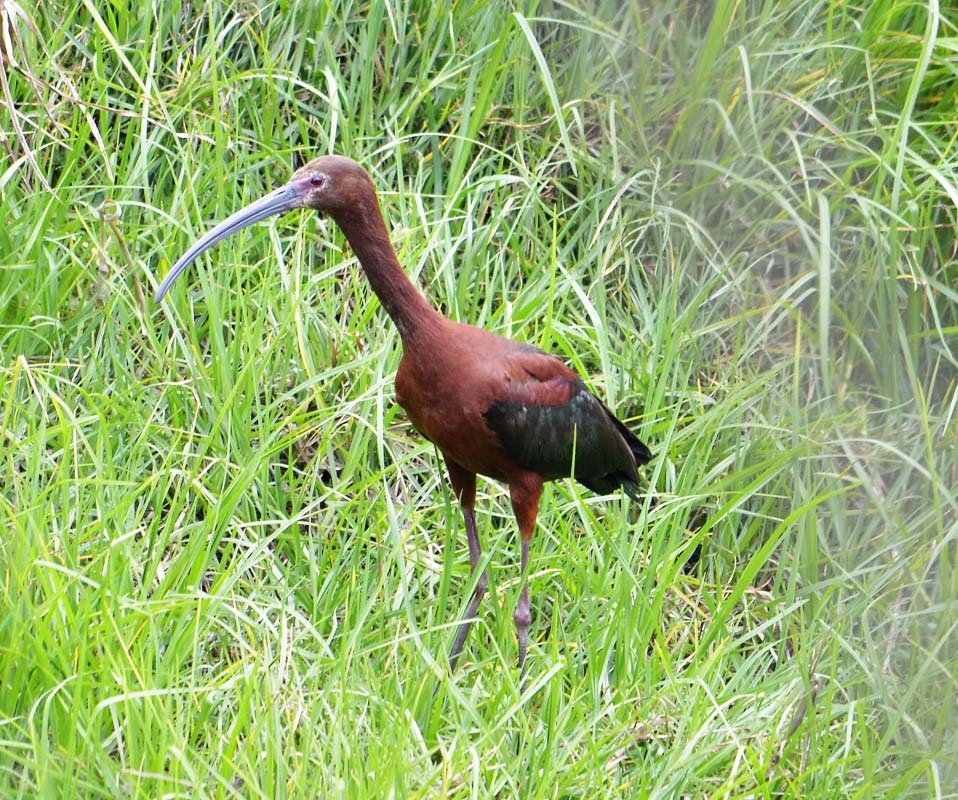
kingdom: Animalia
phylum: Chordata
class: Aves
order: Pelecaniformes
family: Threskiornithidae
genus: Plegadis
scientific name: Plegadis chihi
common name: White-faced ibis
